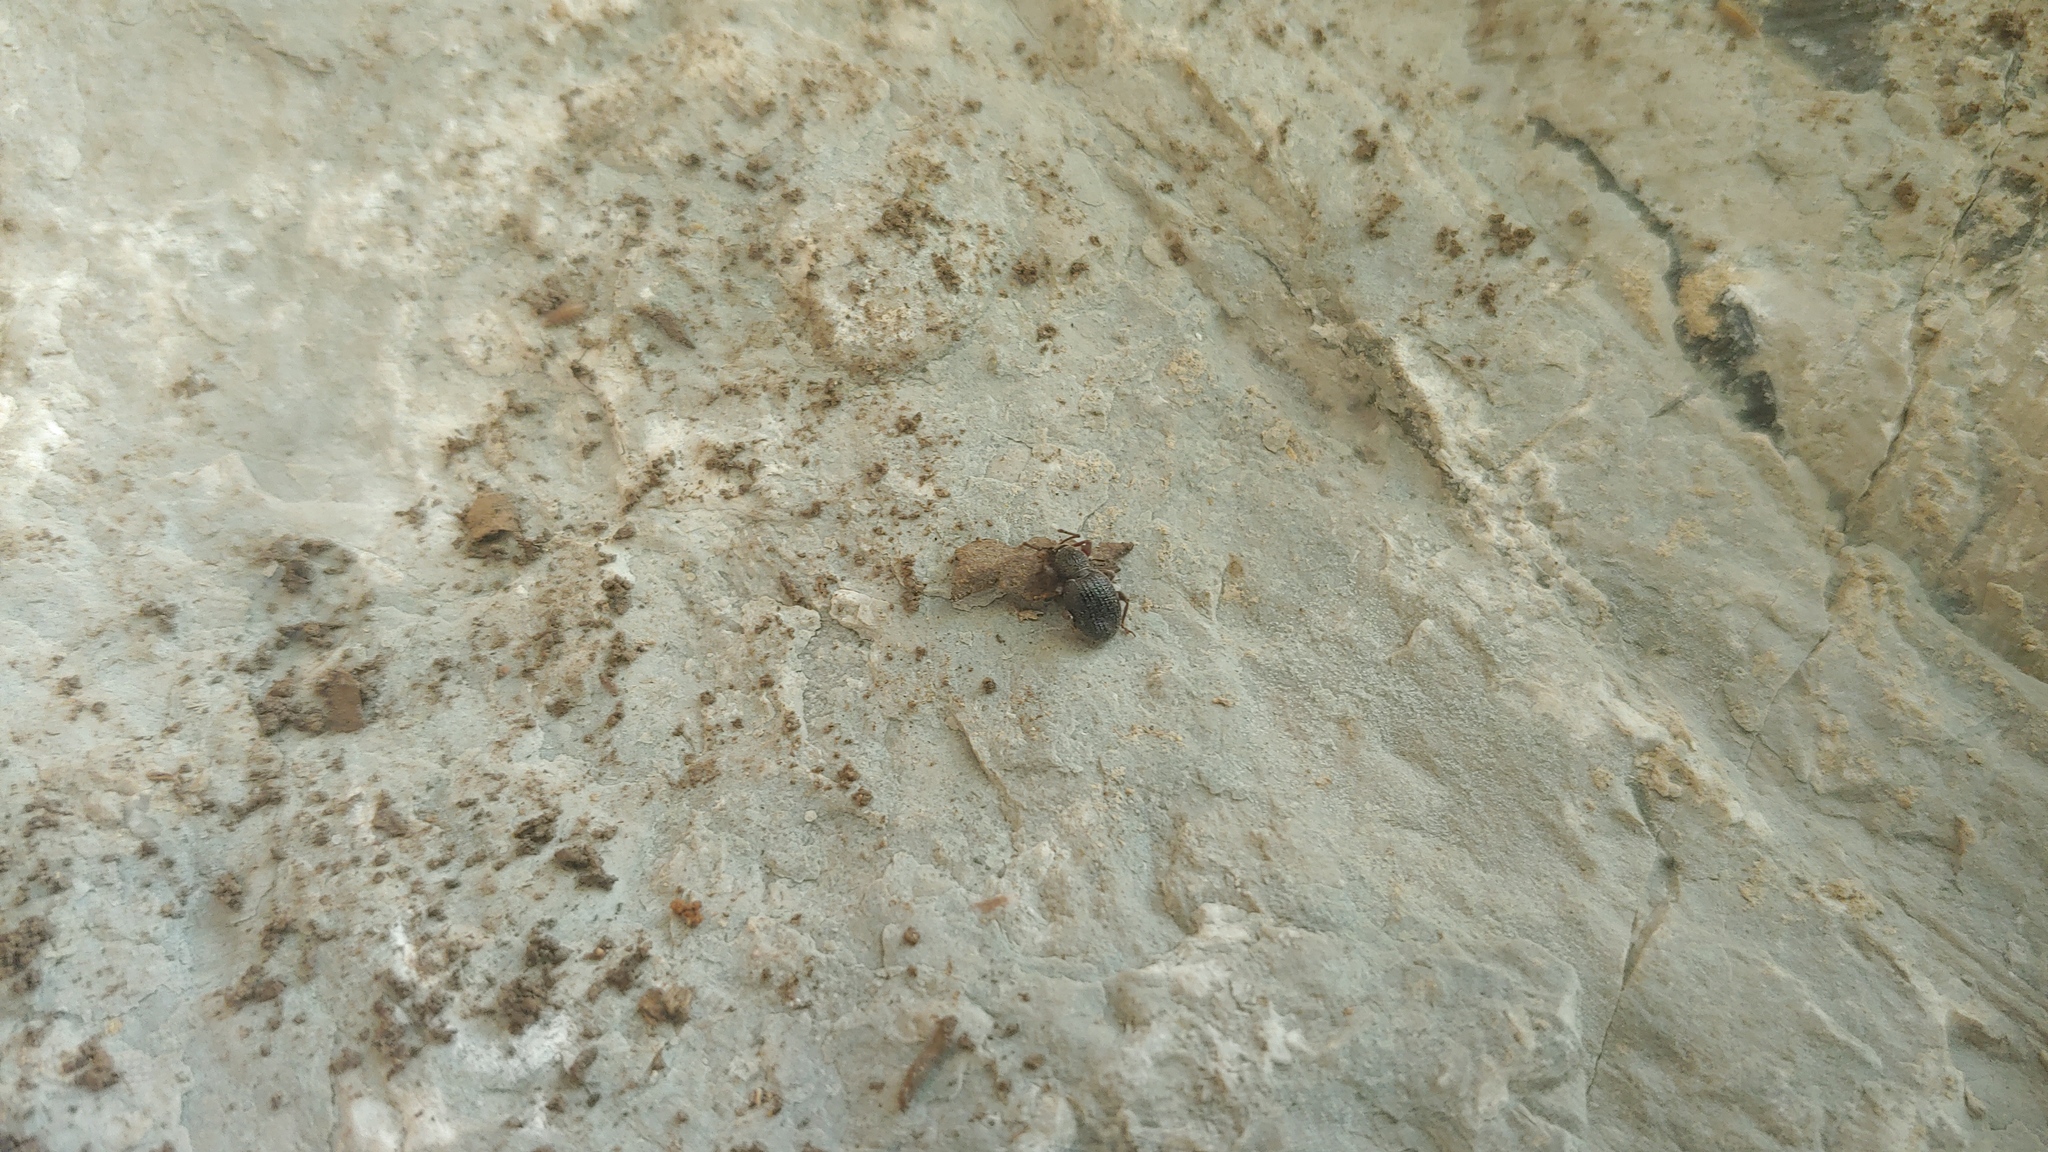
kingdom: Animalia
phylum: Arthropoda
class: Insecta
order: Coleoptera
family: Curculionidae
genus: Otiorhynchus
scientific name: Otiorhynchus ovatus
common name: Strawberry root weevil
